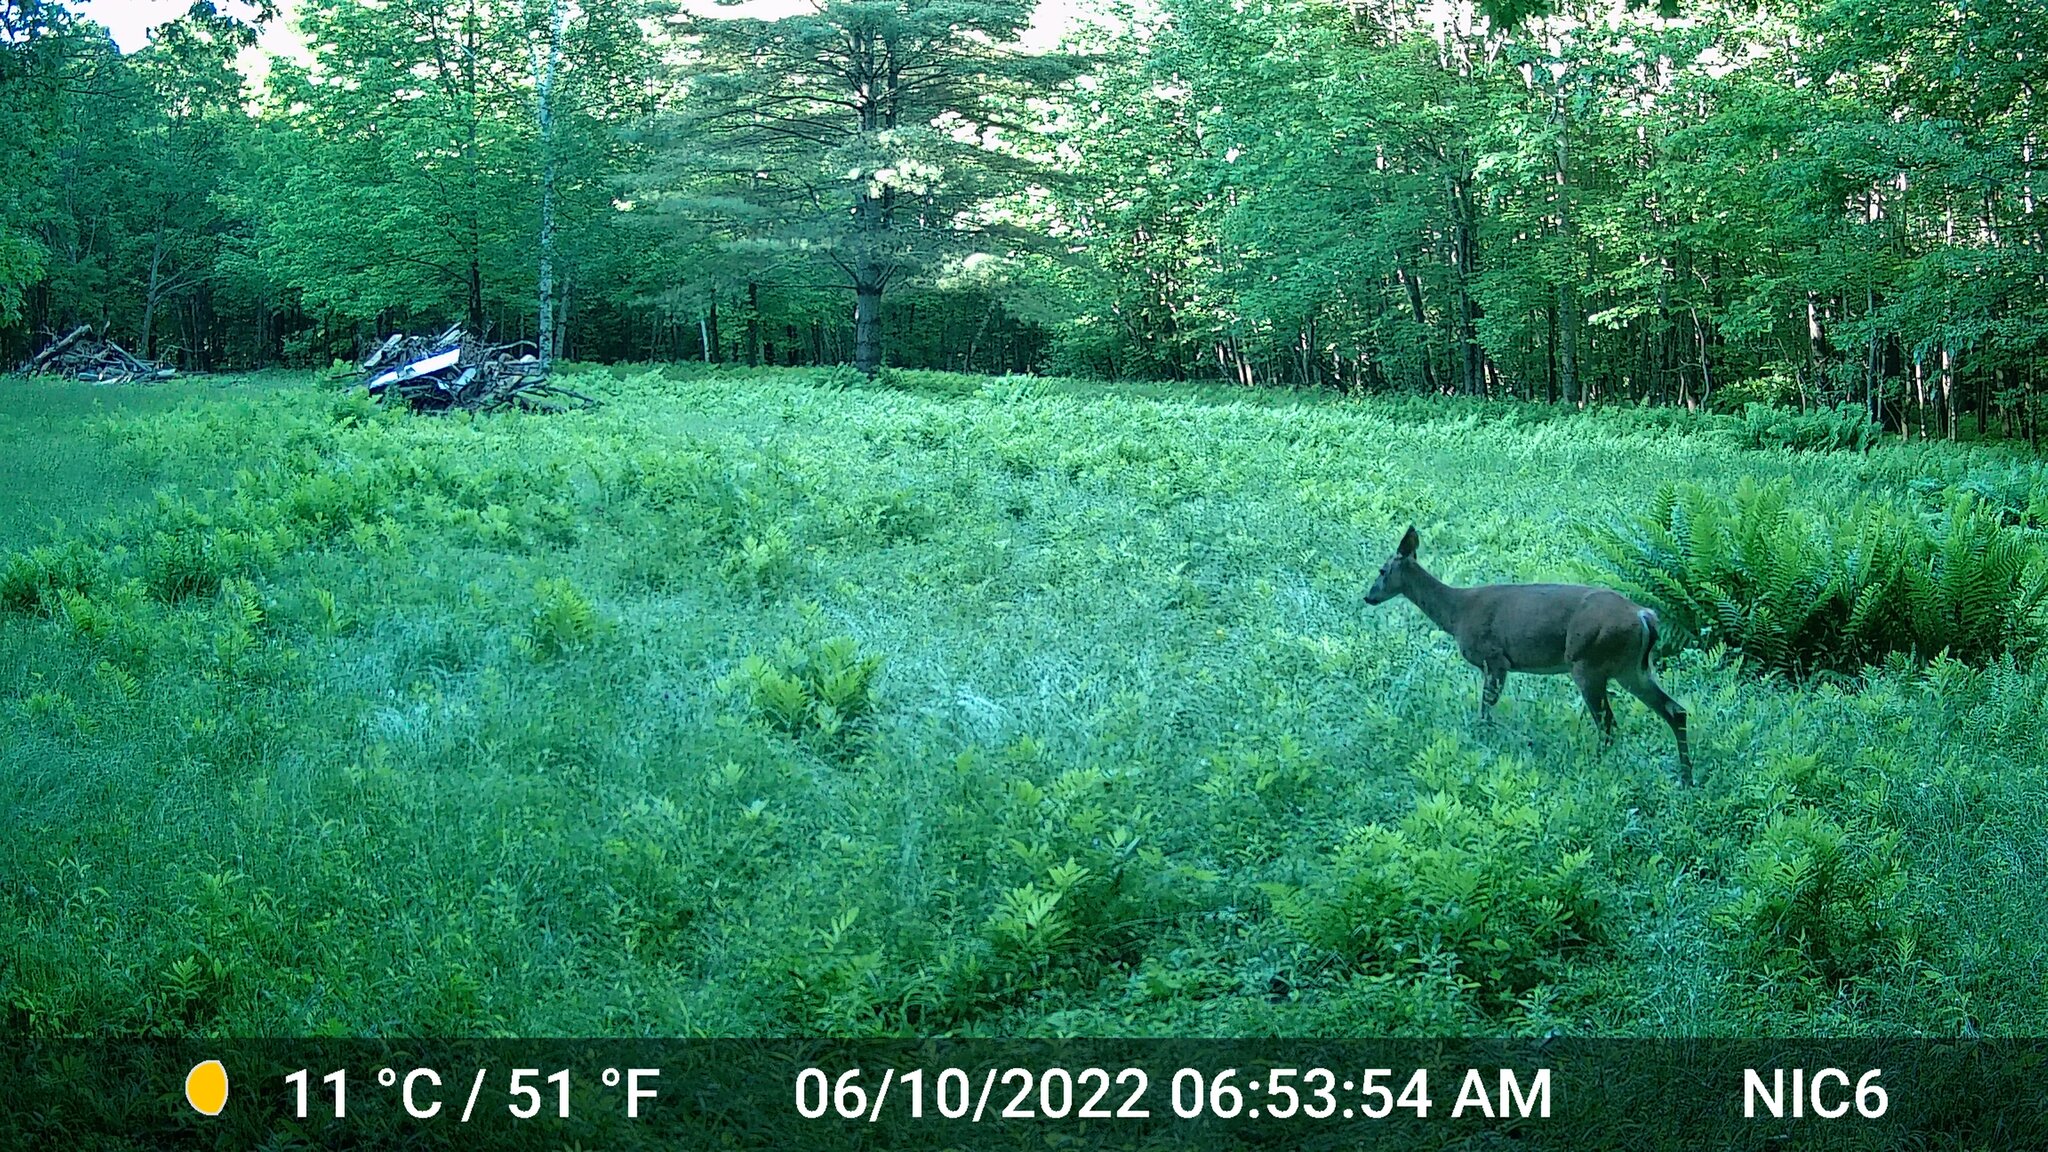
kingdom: Animalia
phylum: Chordata
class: Mammalia
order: Artiodactyla
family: Cervidae
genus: Odocoileus
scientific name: Odocoileus virginianus
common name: White-tailed deer
